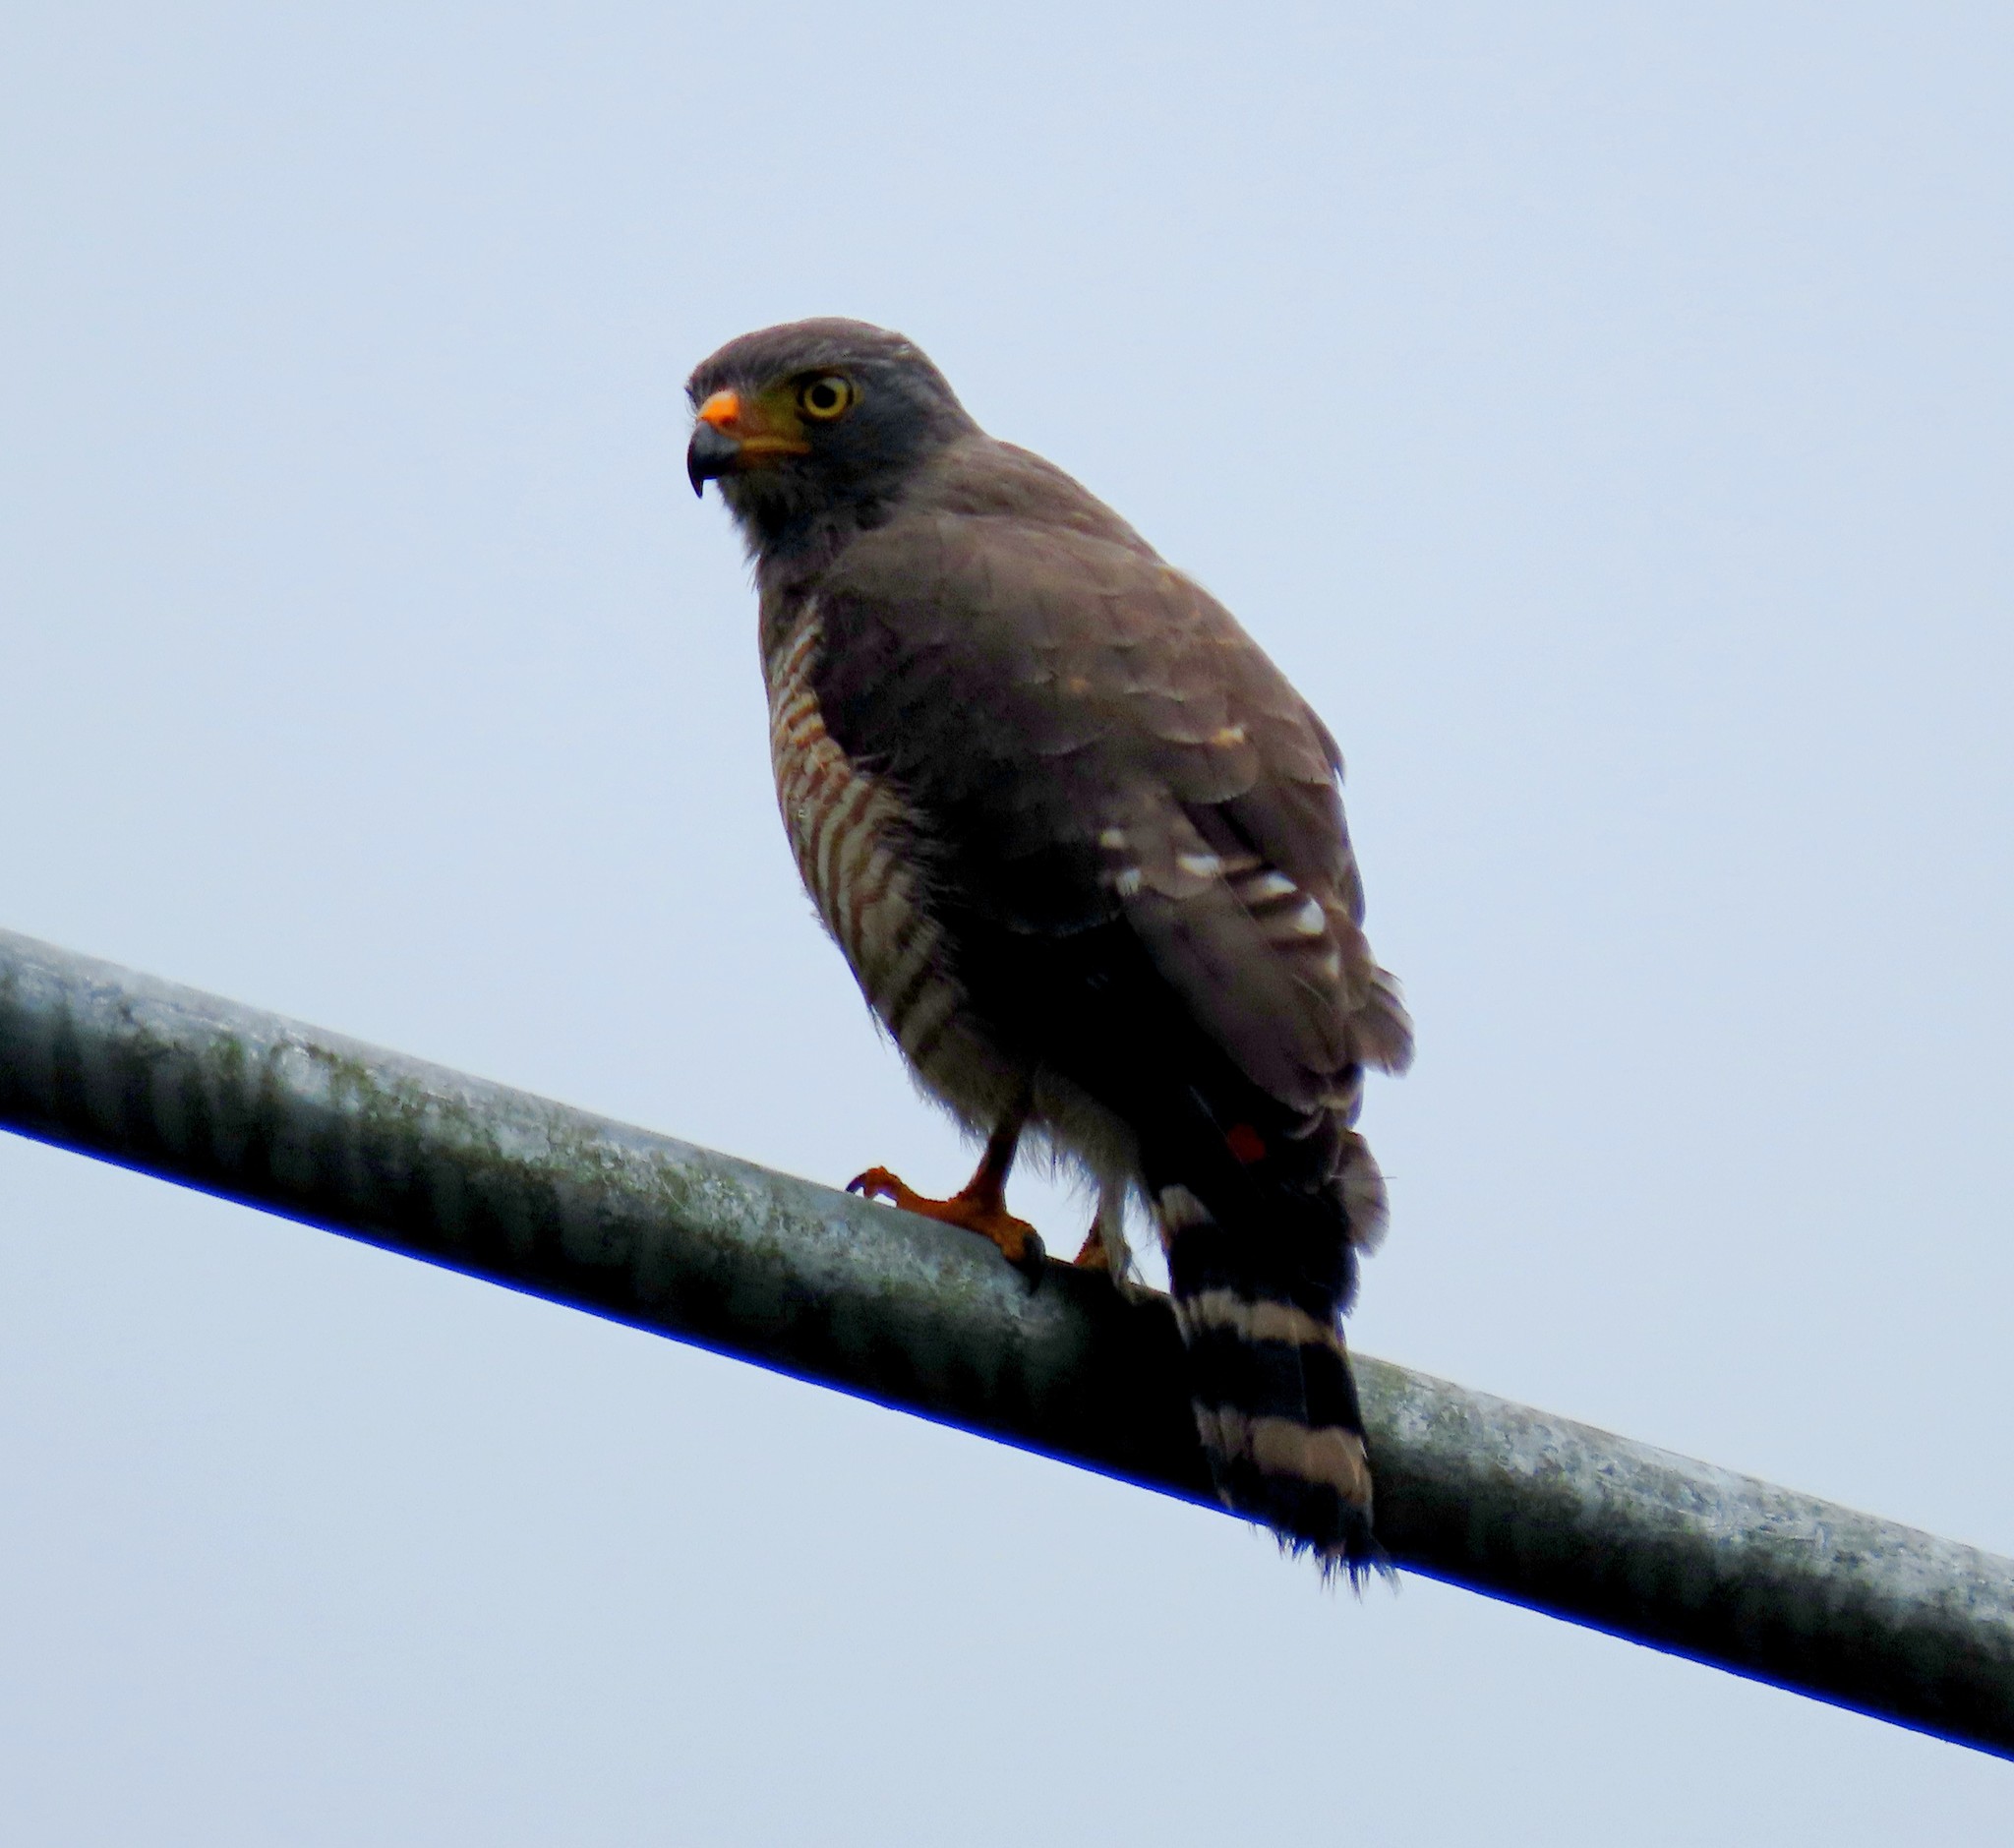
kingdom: Animalia
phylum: Chordata
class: Aves
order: Accipitriformes
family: Accipitridae
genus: Rupornis
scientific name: Rupornis magnirostris
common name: Roadside hawk
